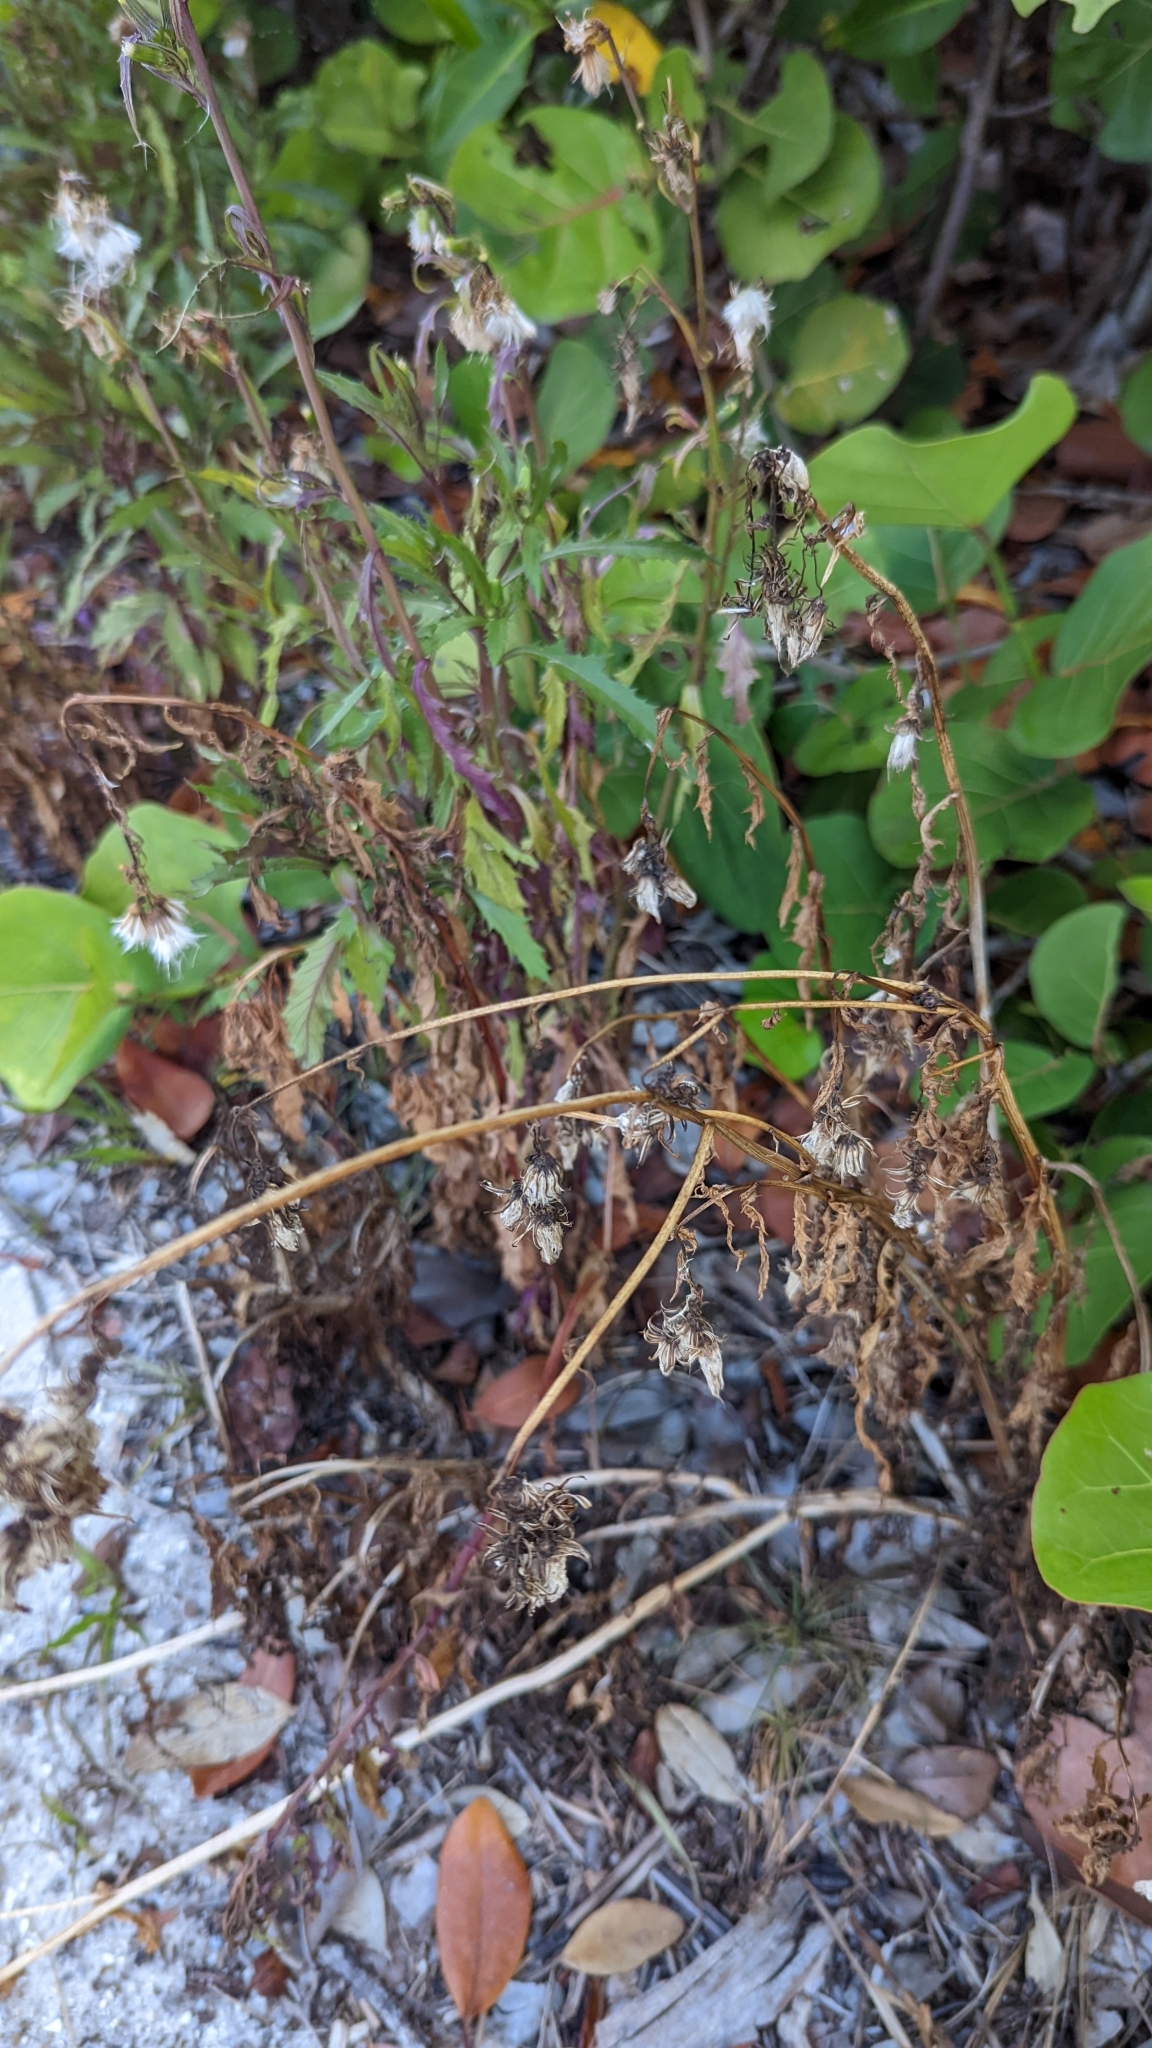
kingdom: Plantae
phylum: Tracheophyta
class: Magnoliopsida
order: Asterales
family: Asteraceae
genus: Erechtites
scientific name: Erechtites hieraciifolius
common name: American burnweed
